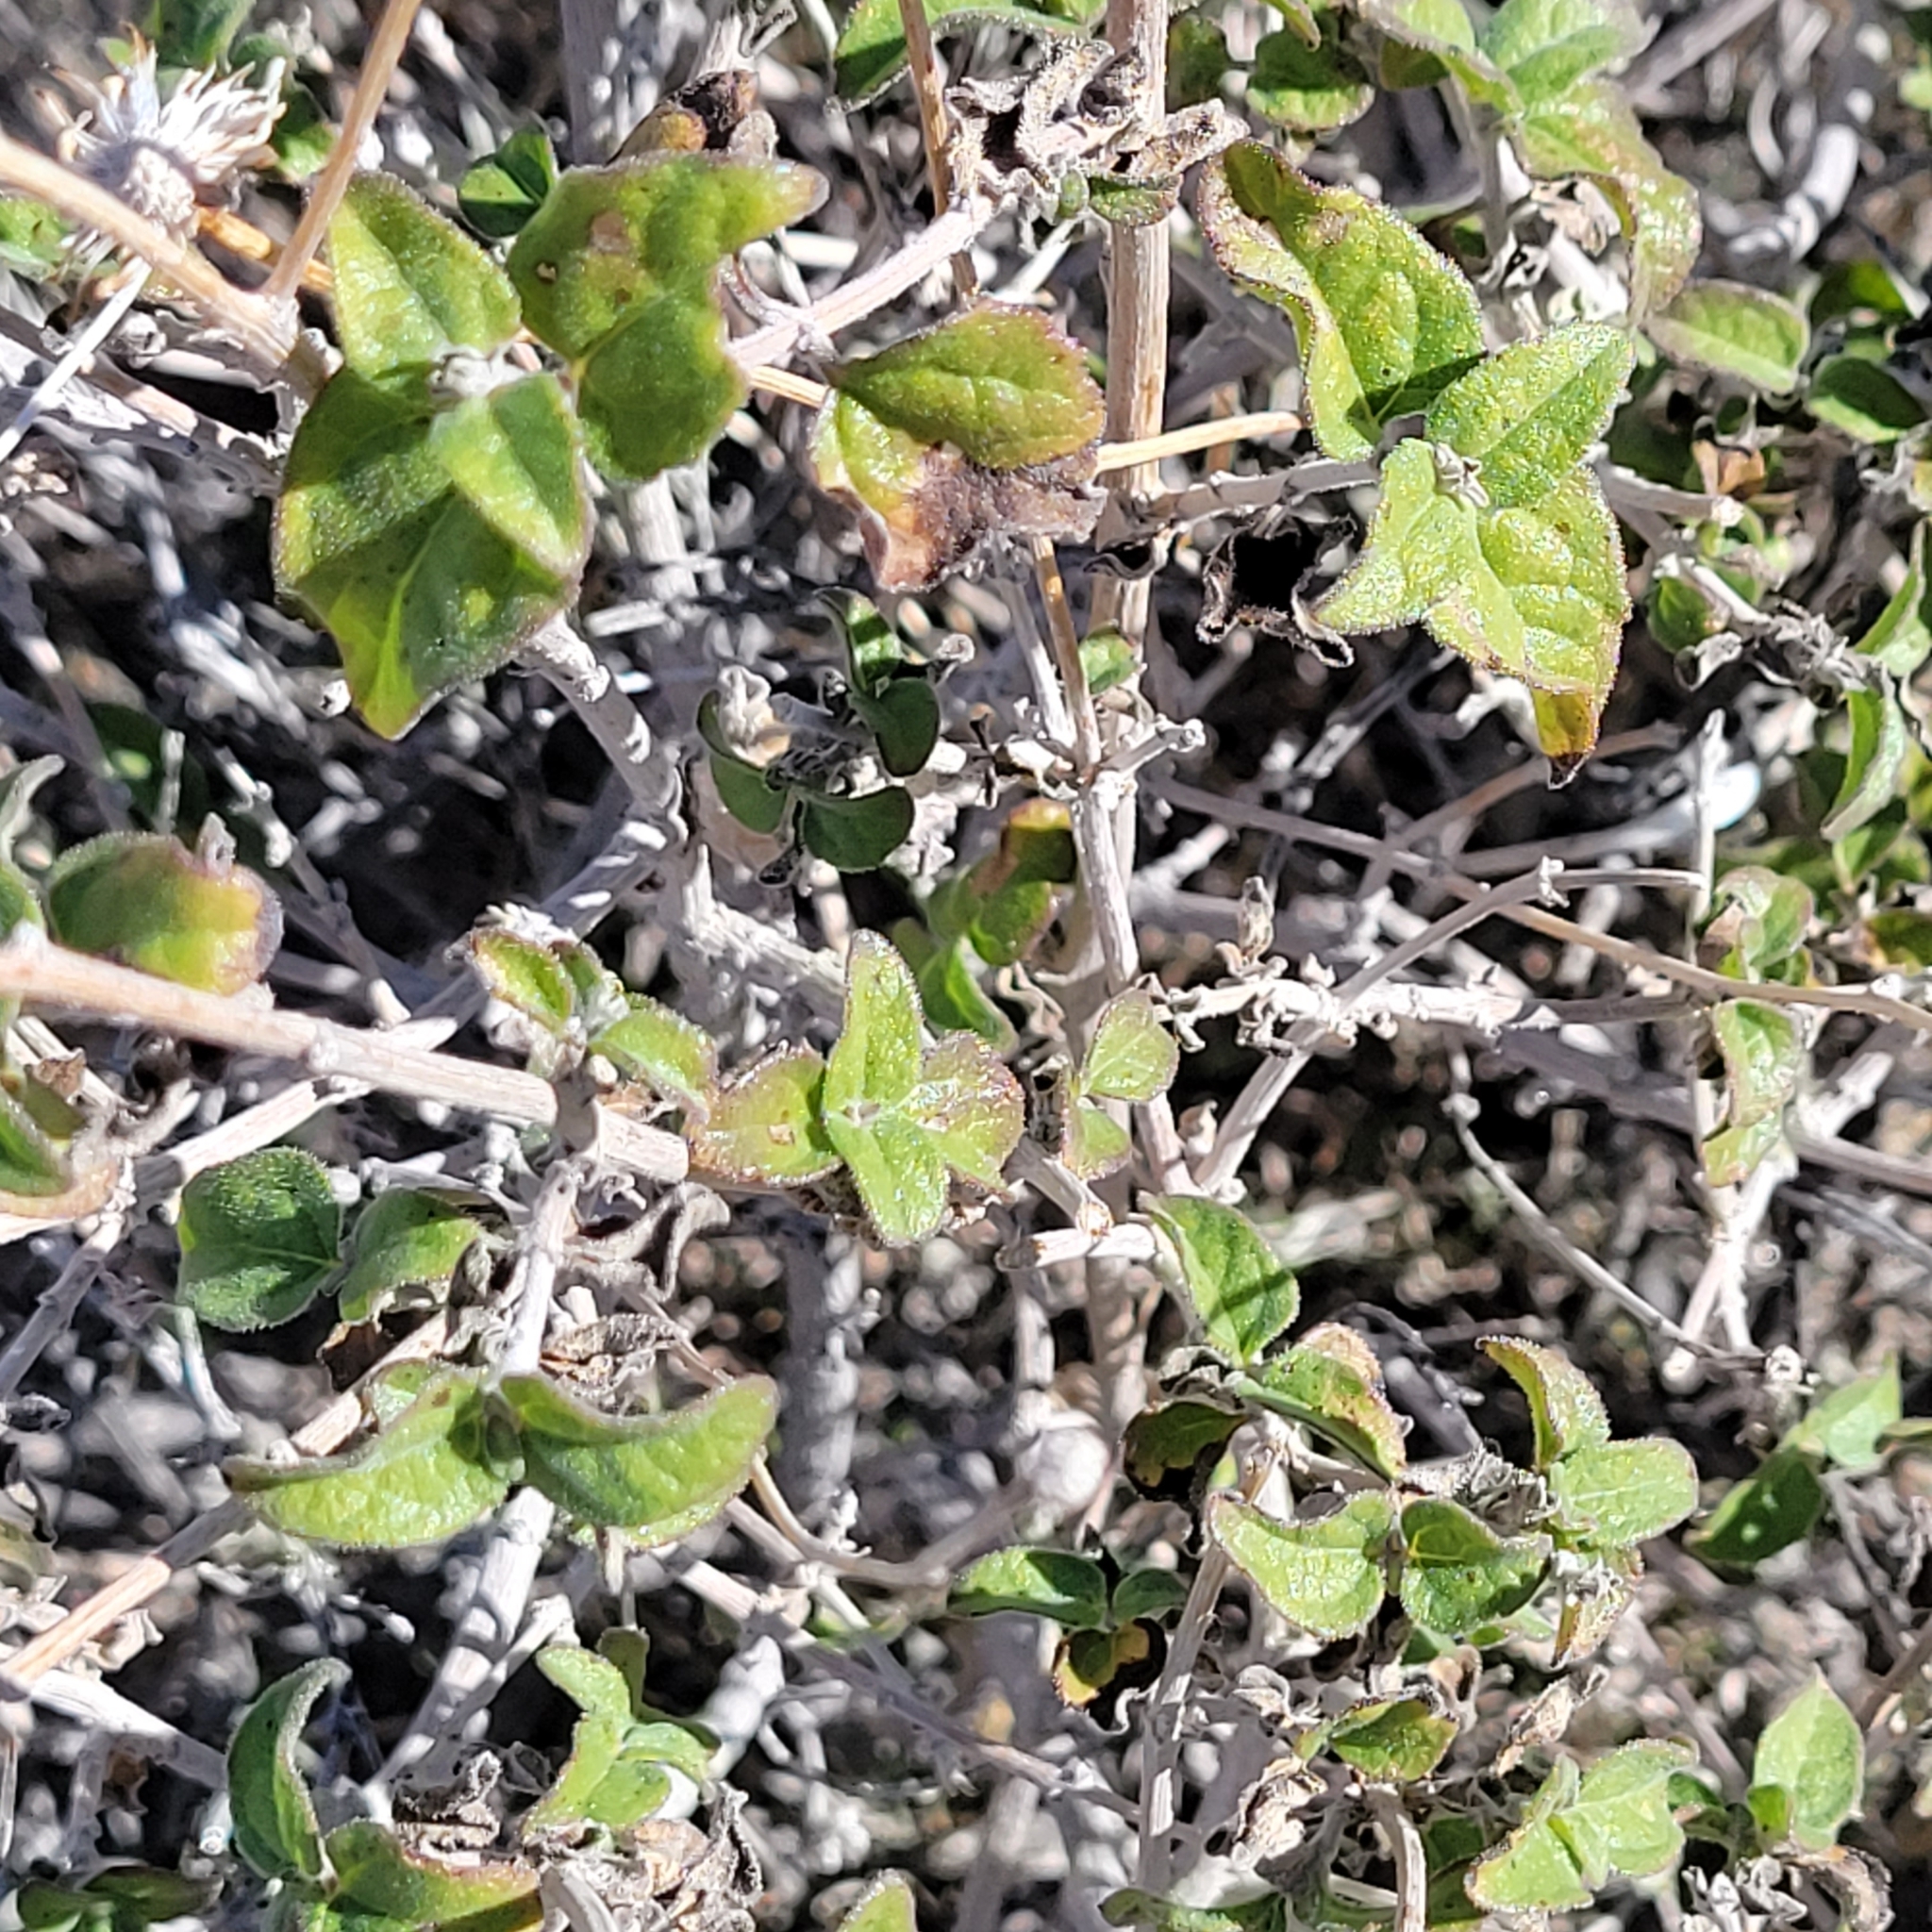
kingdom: Plantae
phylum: Tracheophyta
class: Magnoliopsida
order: Asterales
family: Asteraceae
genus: Bahiopsis
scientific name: Bahiopsis parishii
